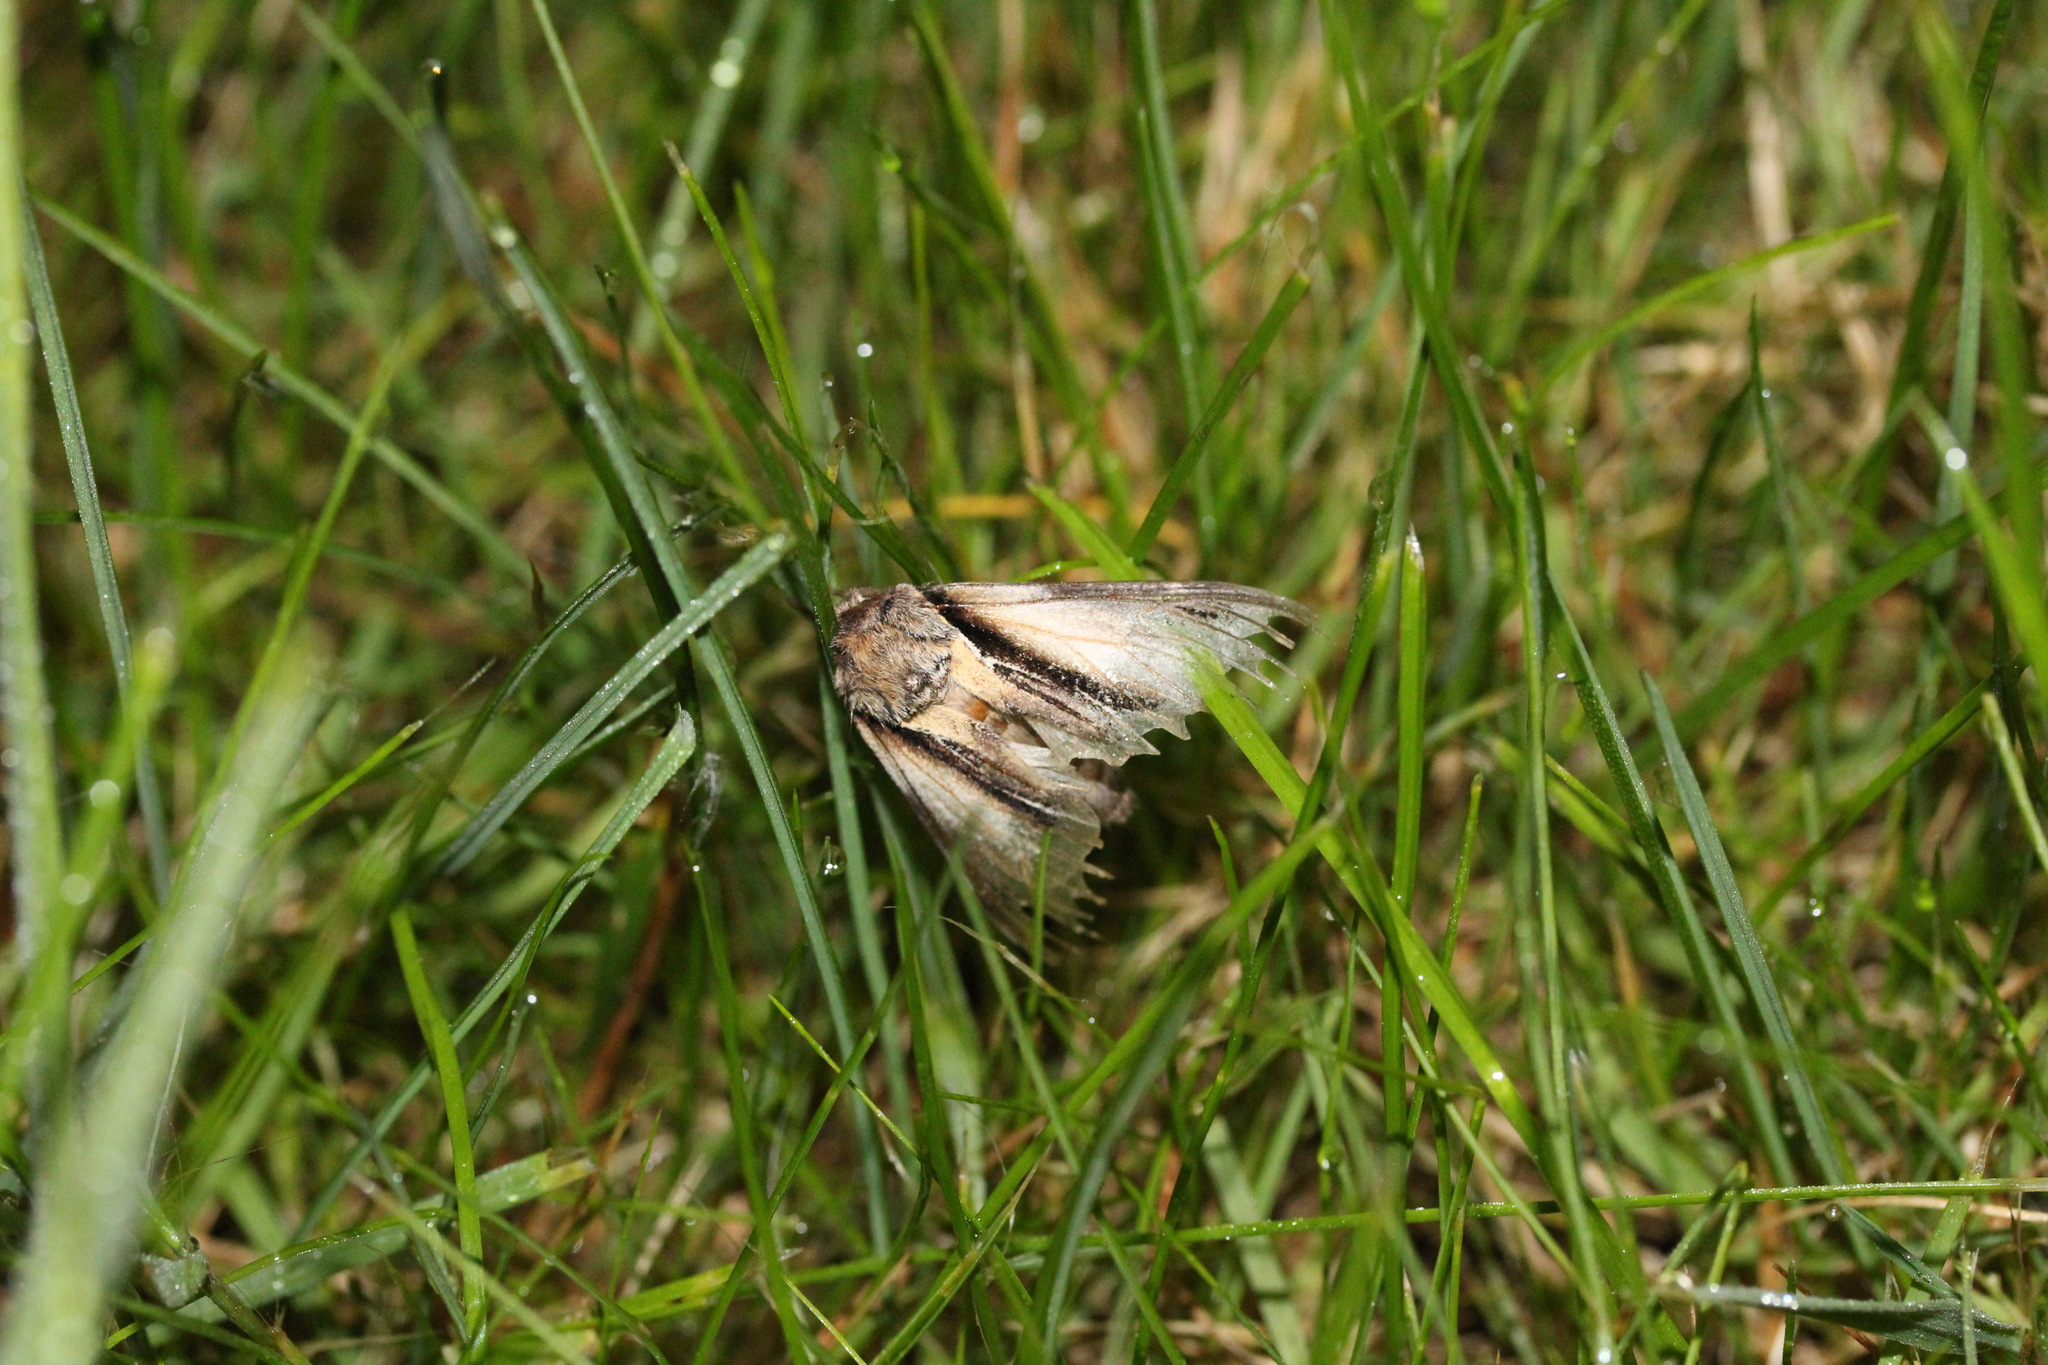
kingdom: Animalia
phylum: Arthropoda
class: Insecta
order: Lepidoptera
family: Notodontidae
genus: Pheosia
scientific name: Pheosia tremula
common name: Swallow prominent
